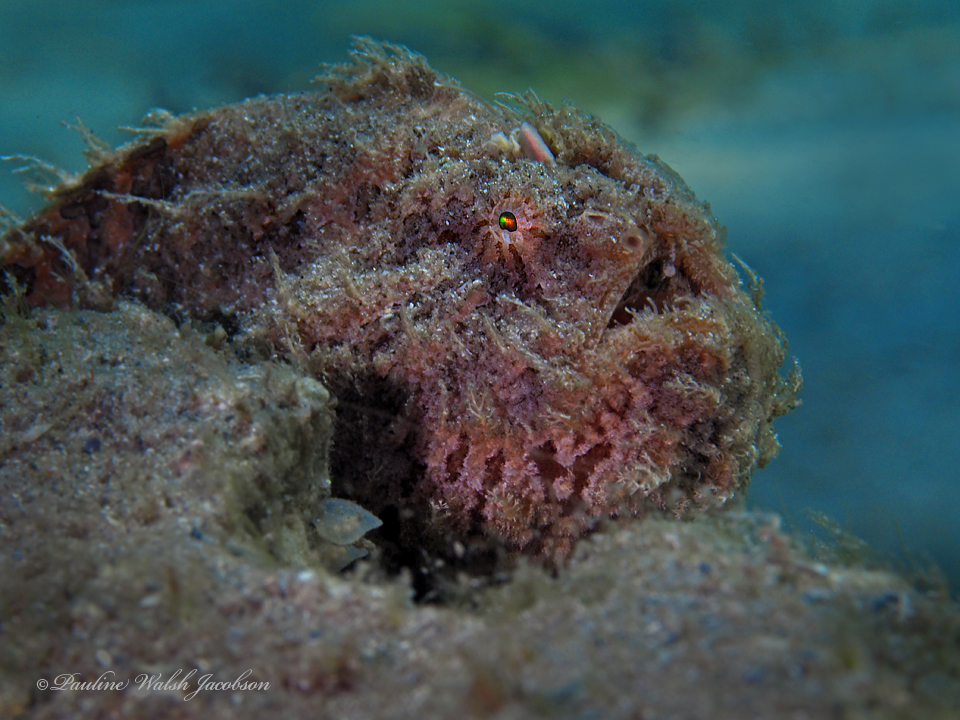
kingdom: Animalia
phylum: Chordata
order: Lophiiformes
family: Antennariidae
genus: Antennarius
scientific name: Antennarius striatus
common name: Striated frogfish
